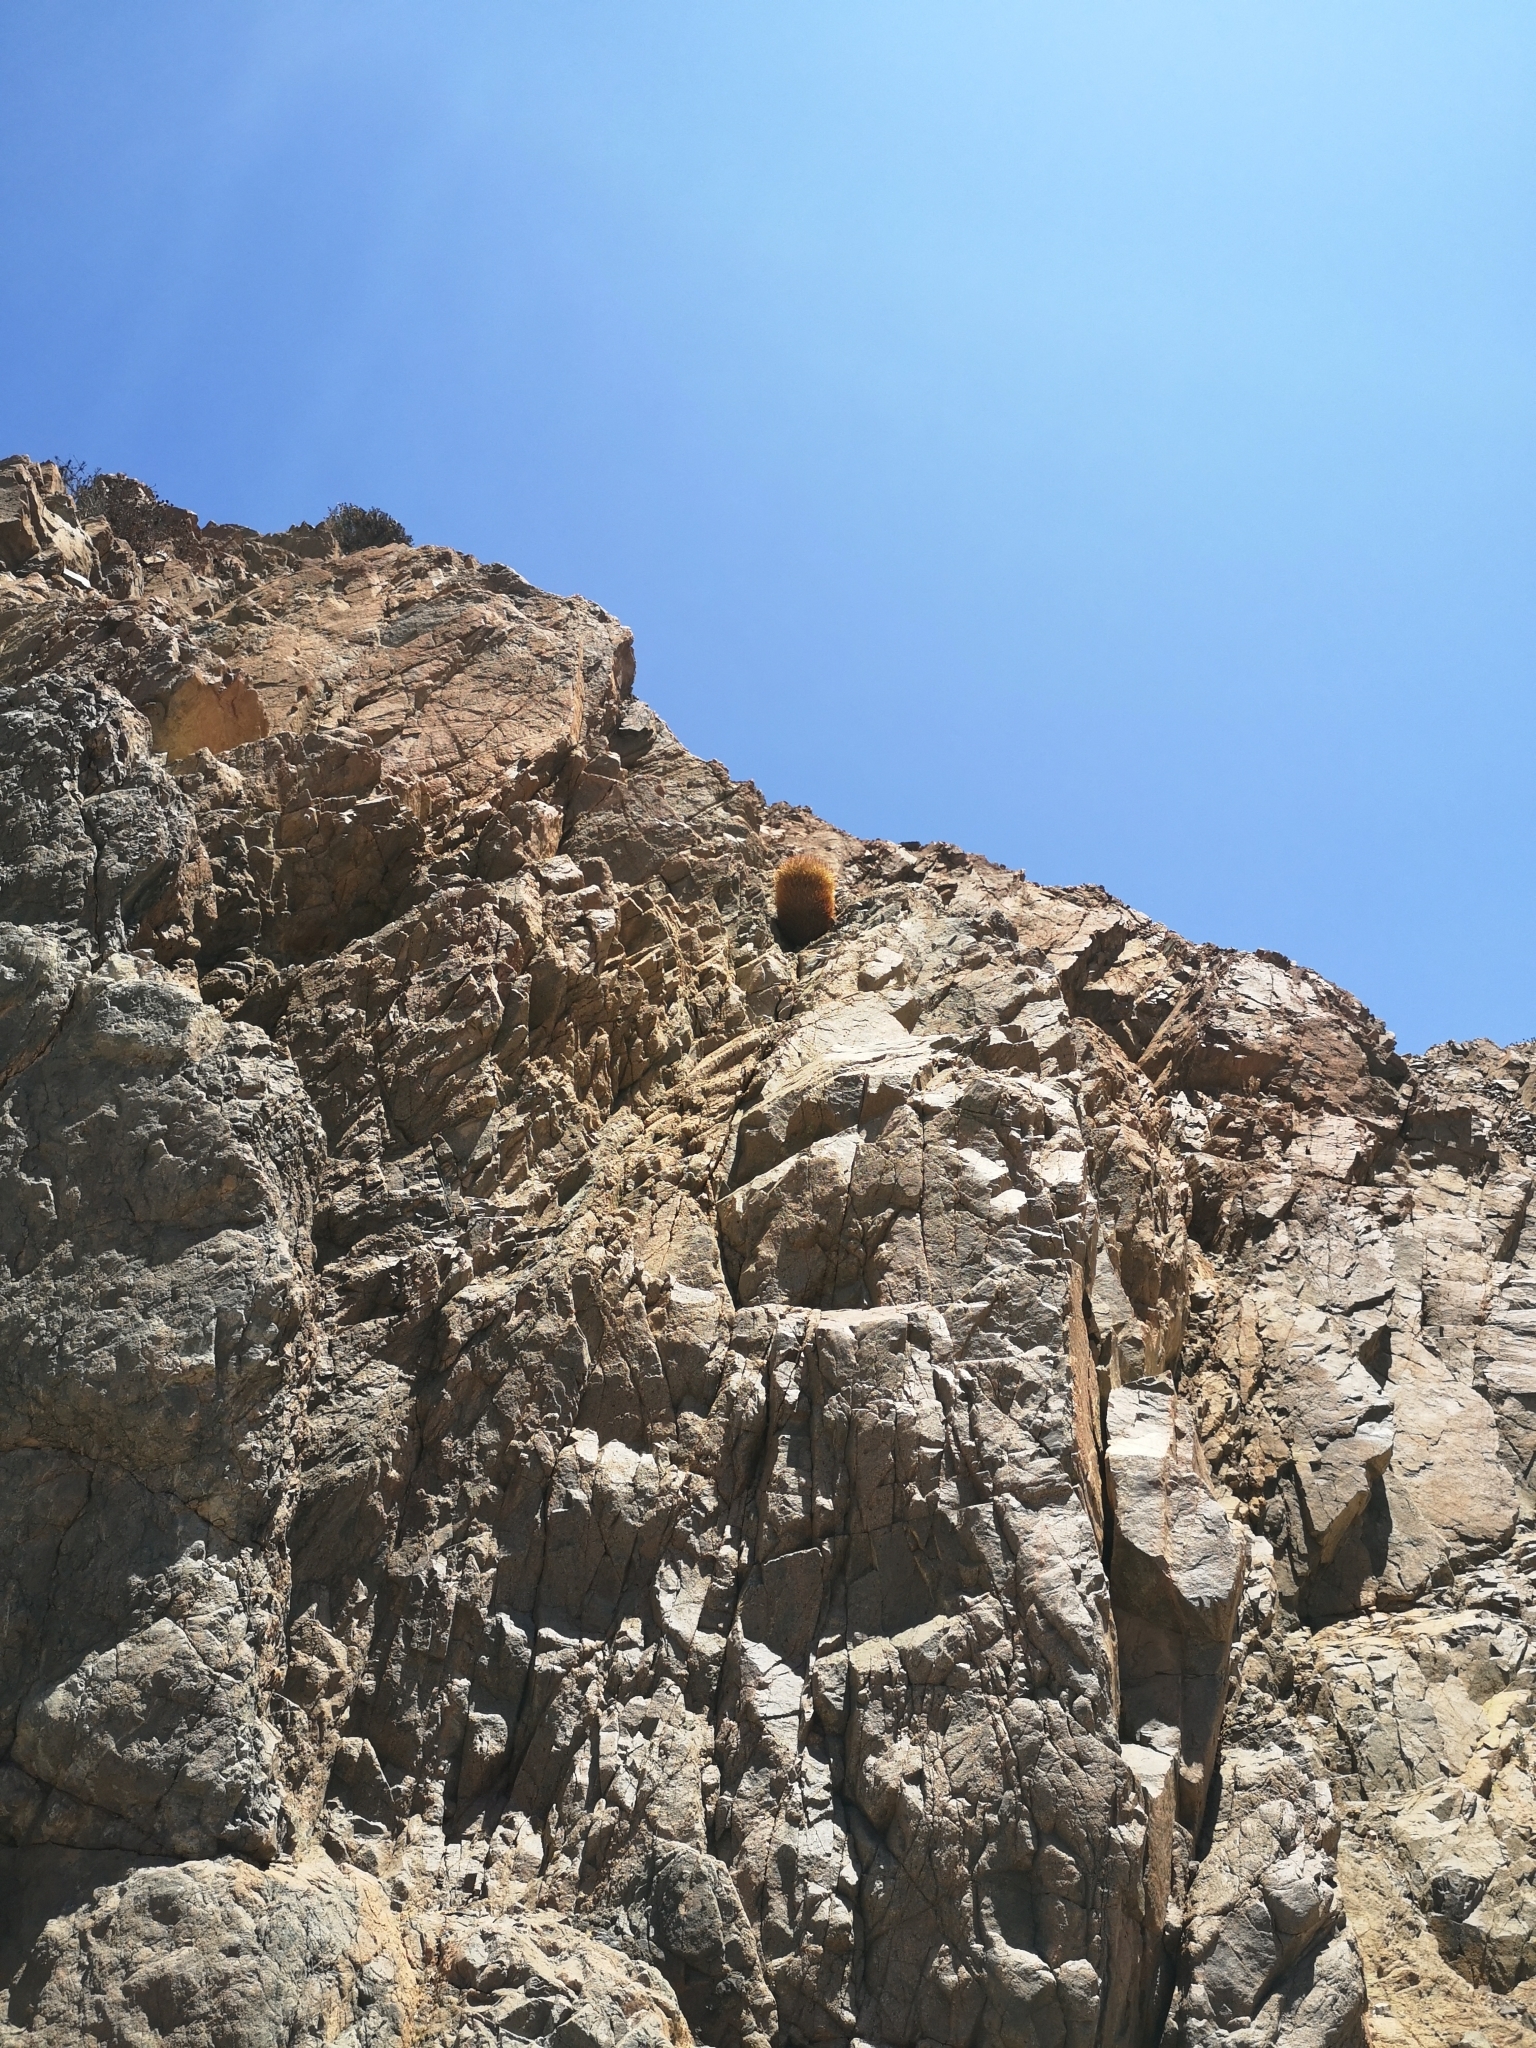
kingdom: Plantae
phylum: Tracheophyta
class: Magnoliopsida
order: Caryophyllales
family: Cactaceae
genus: Eriosyce
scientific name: Eriosyce rodentiophila
